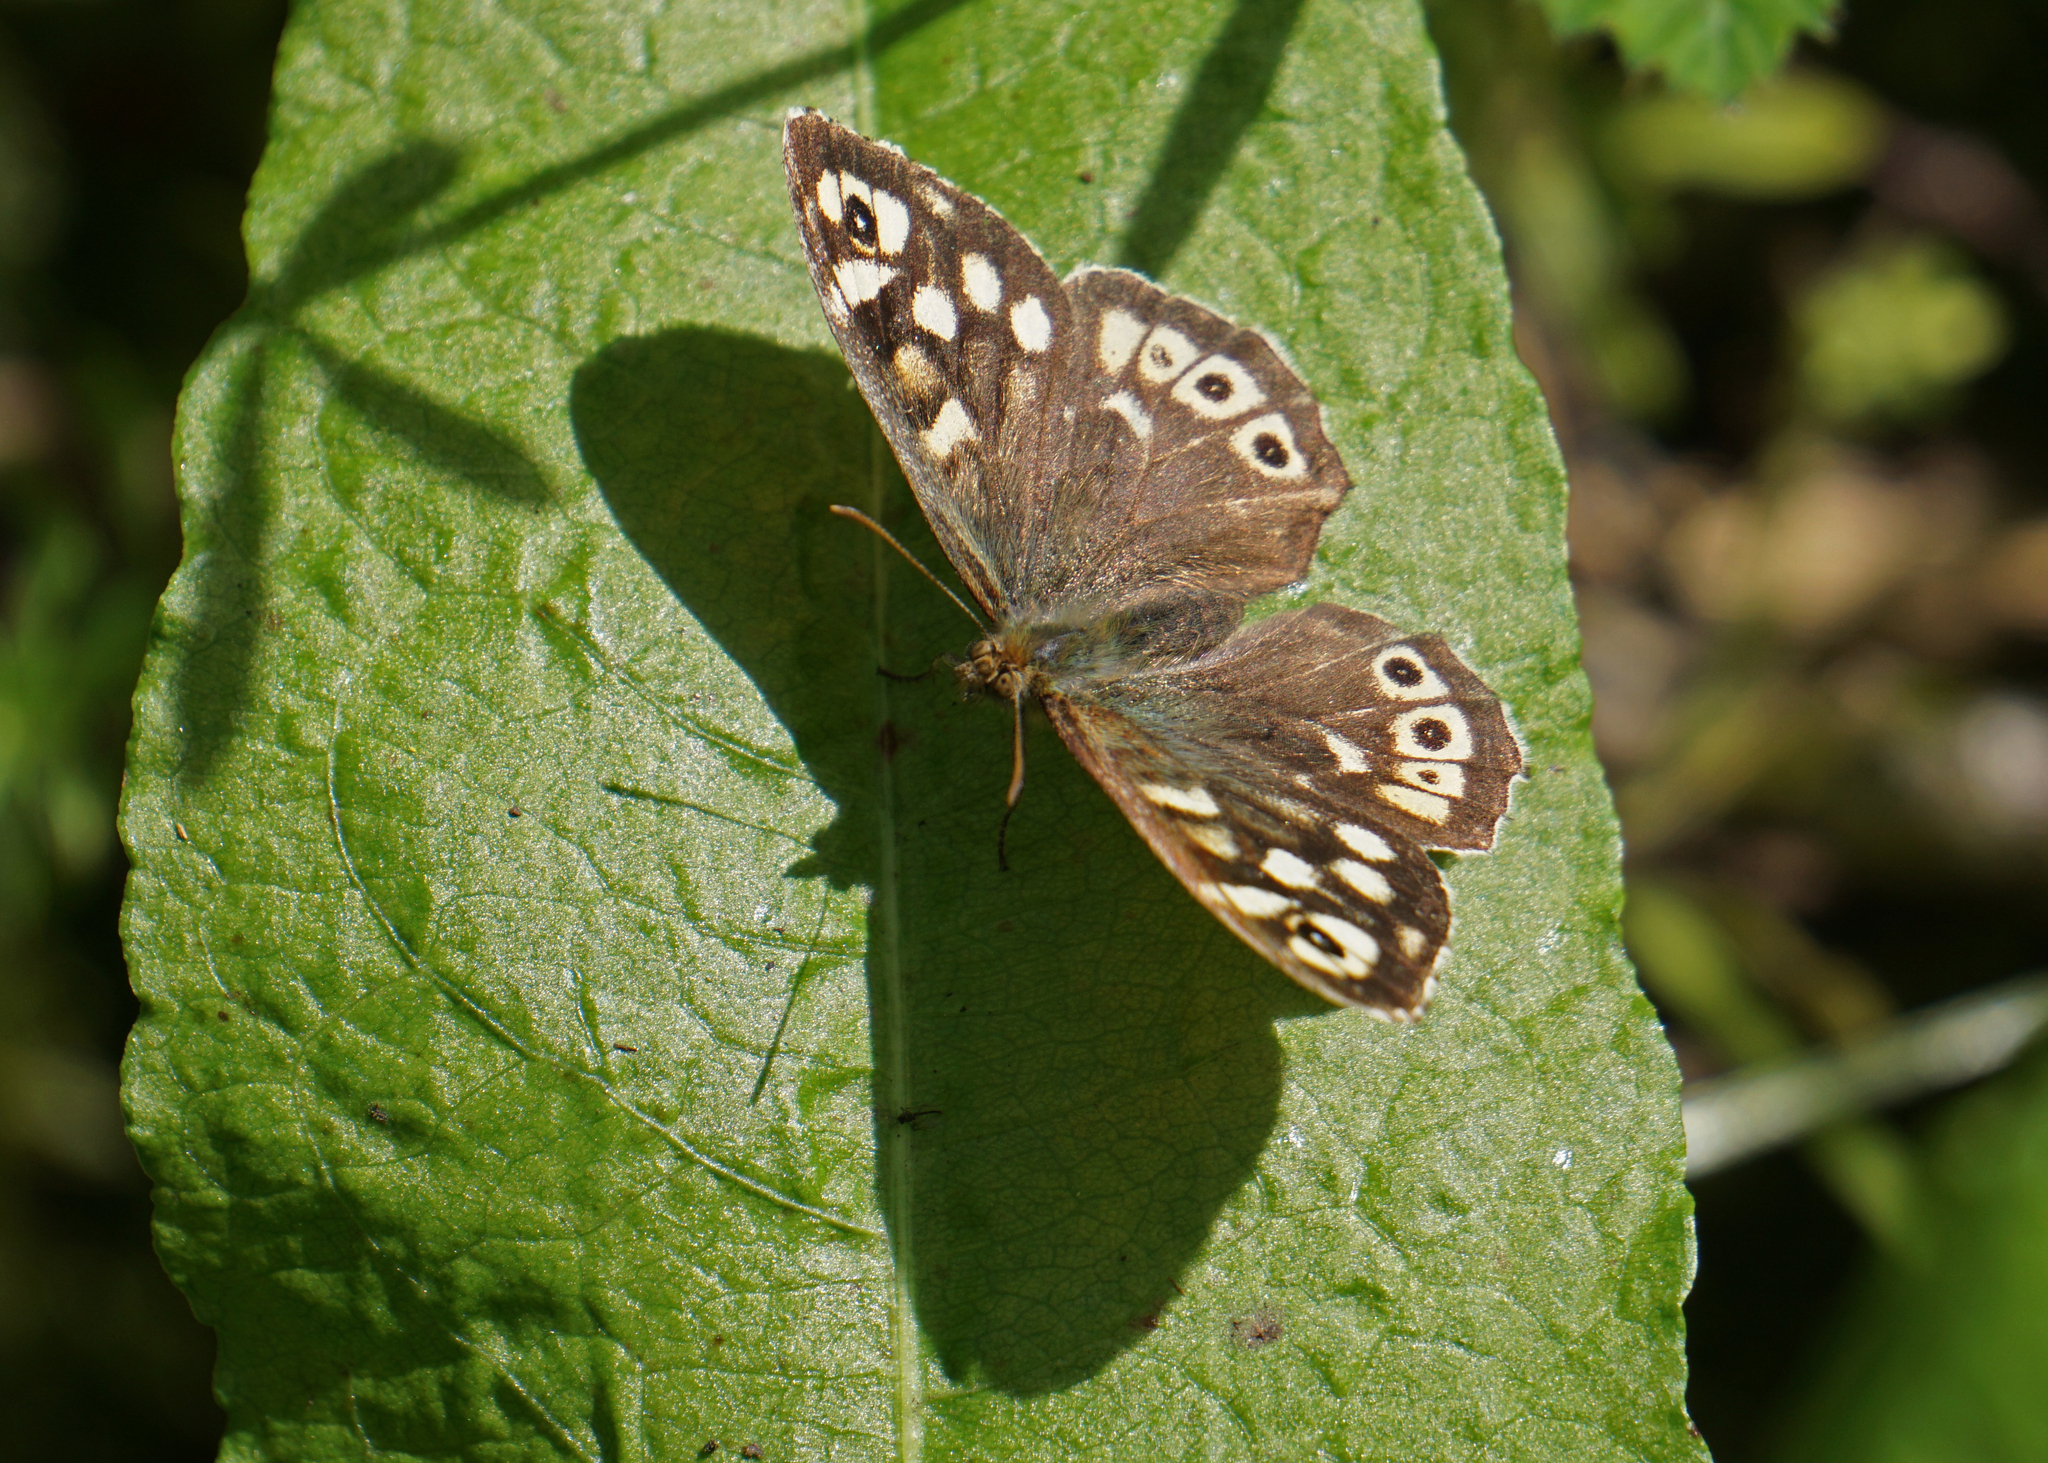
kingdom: Animalia
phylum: Arthropoda
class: Insecta
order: Lepidoptera
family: Nymphalidae
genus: Pararge
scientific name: Pararge aegeria
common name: Speckled wood
